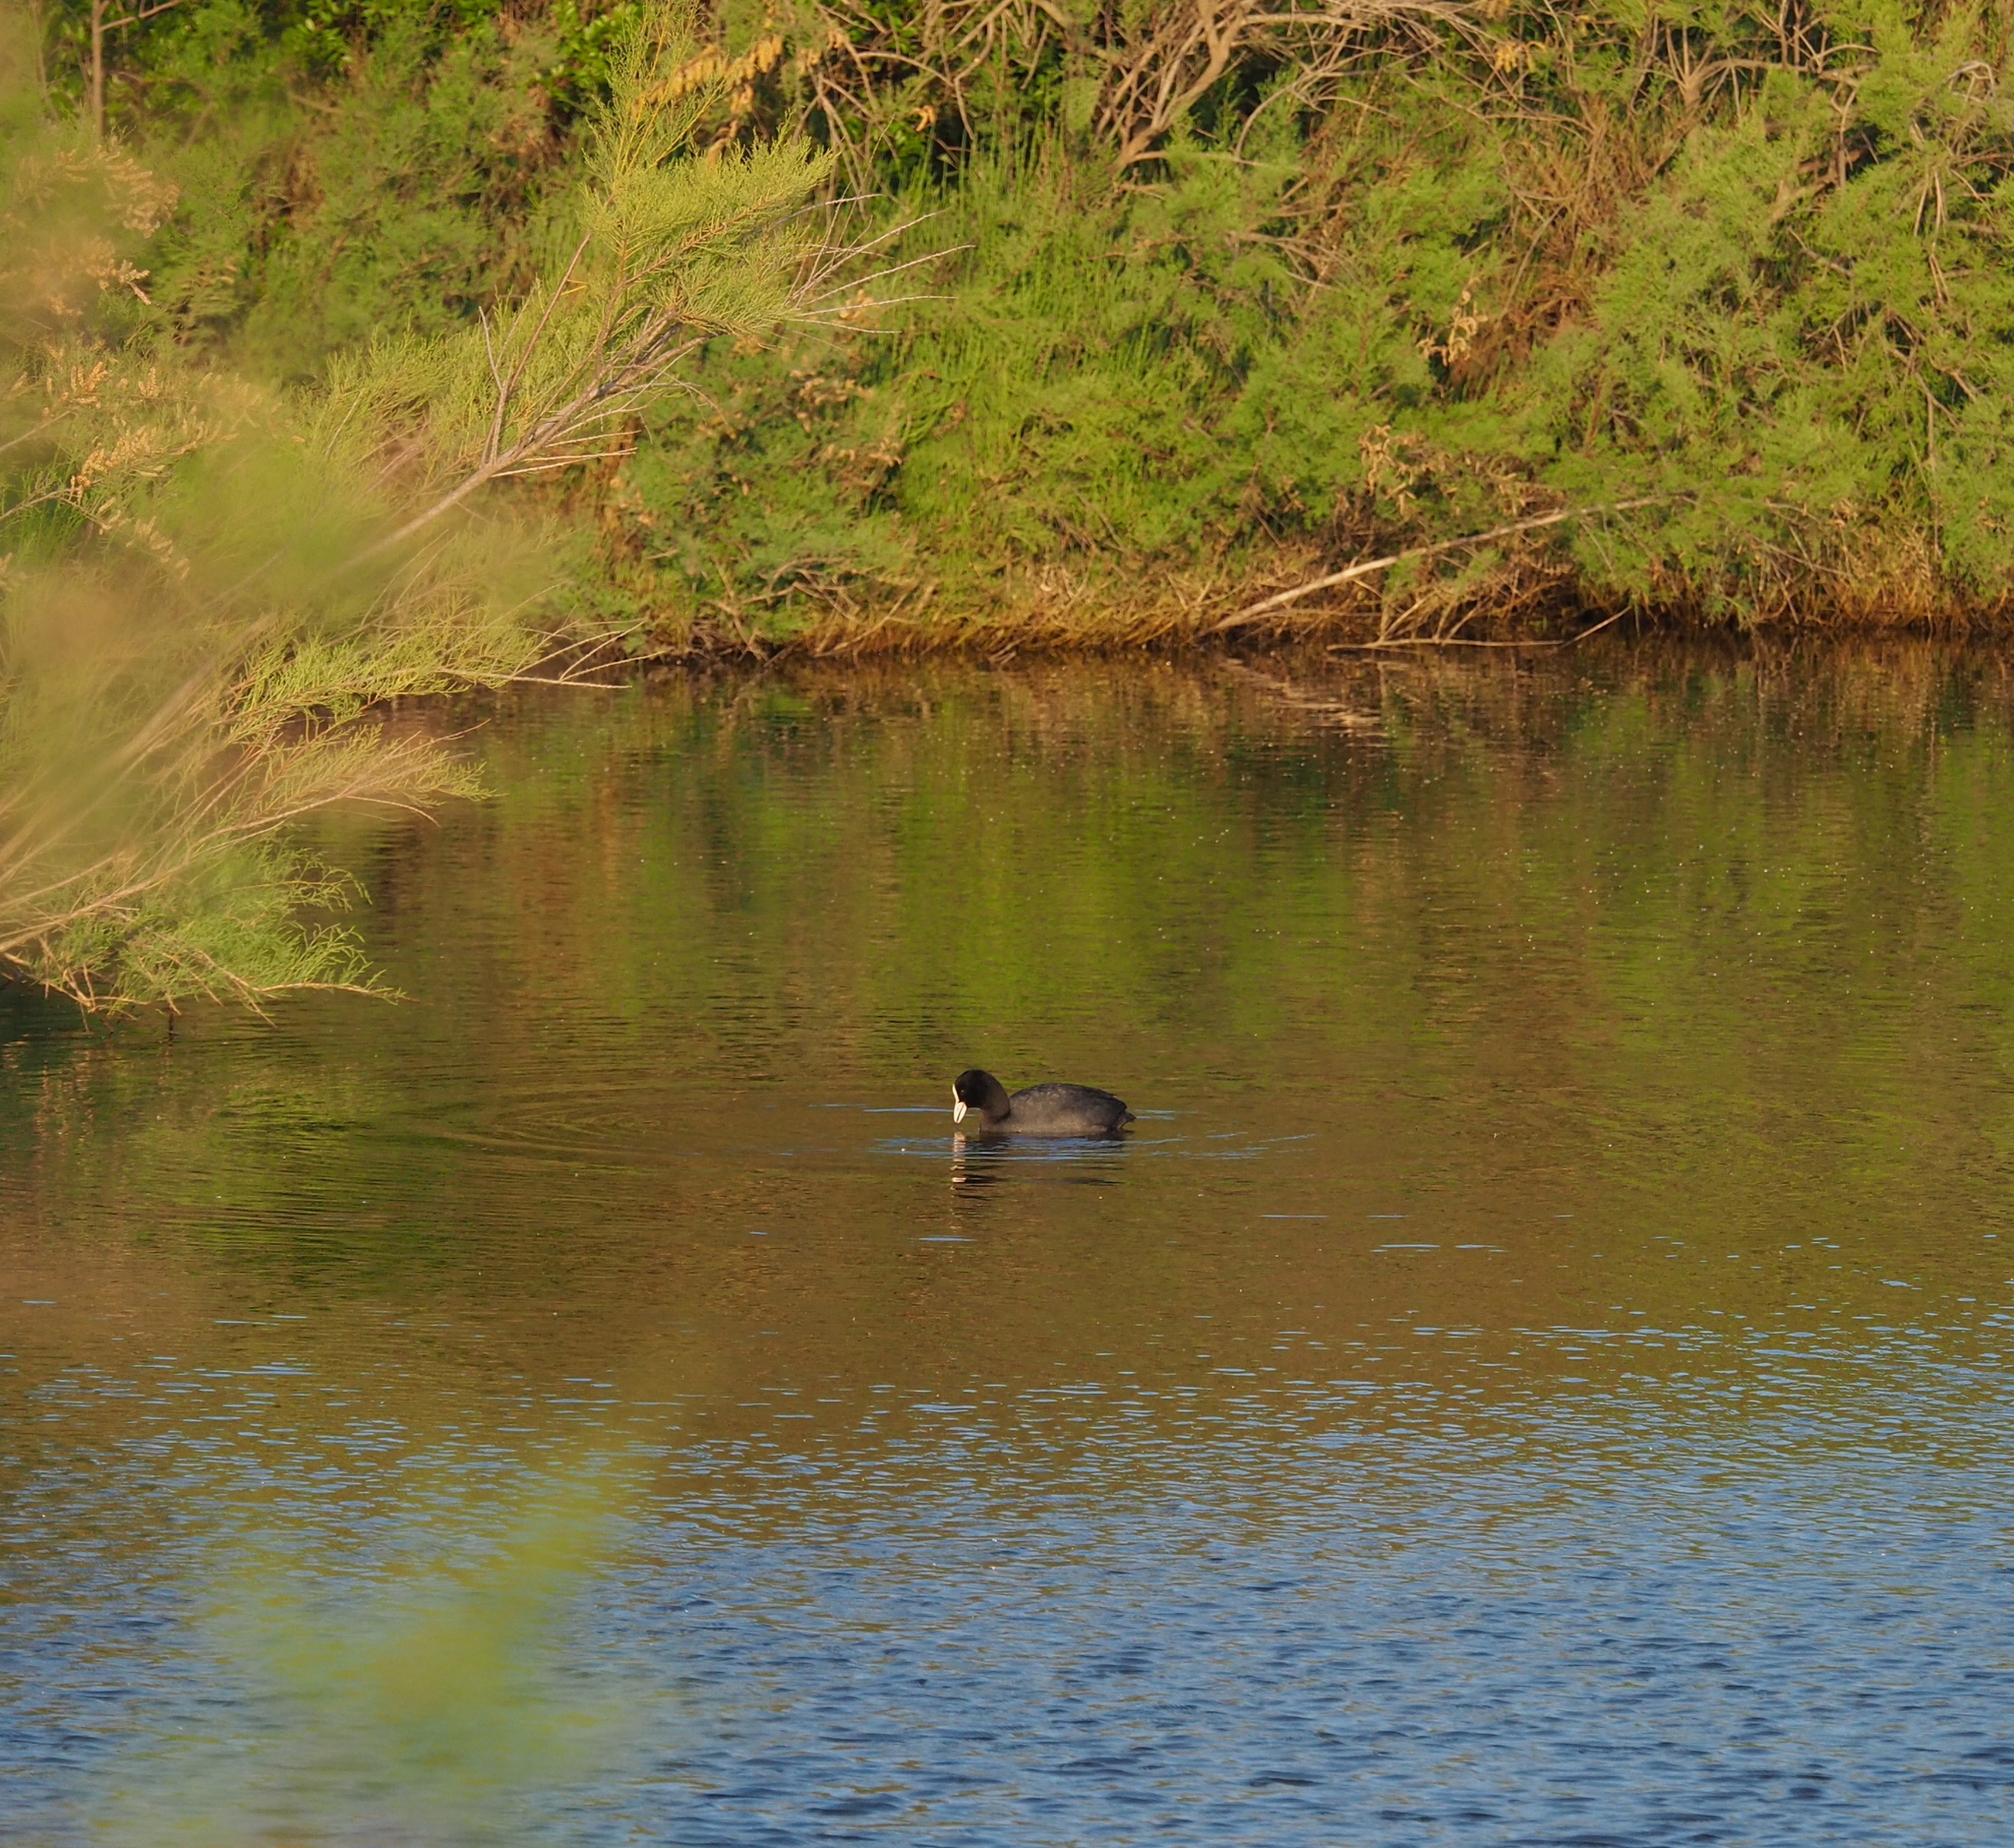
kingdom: Animalia
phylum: Chordata
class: Aves
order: Gruiformes
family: Rallidae
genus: Fulica
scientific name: Fulica atra
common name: Eurasian coot
